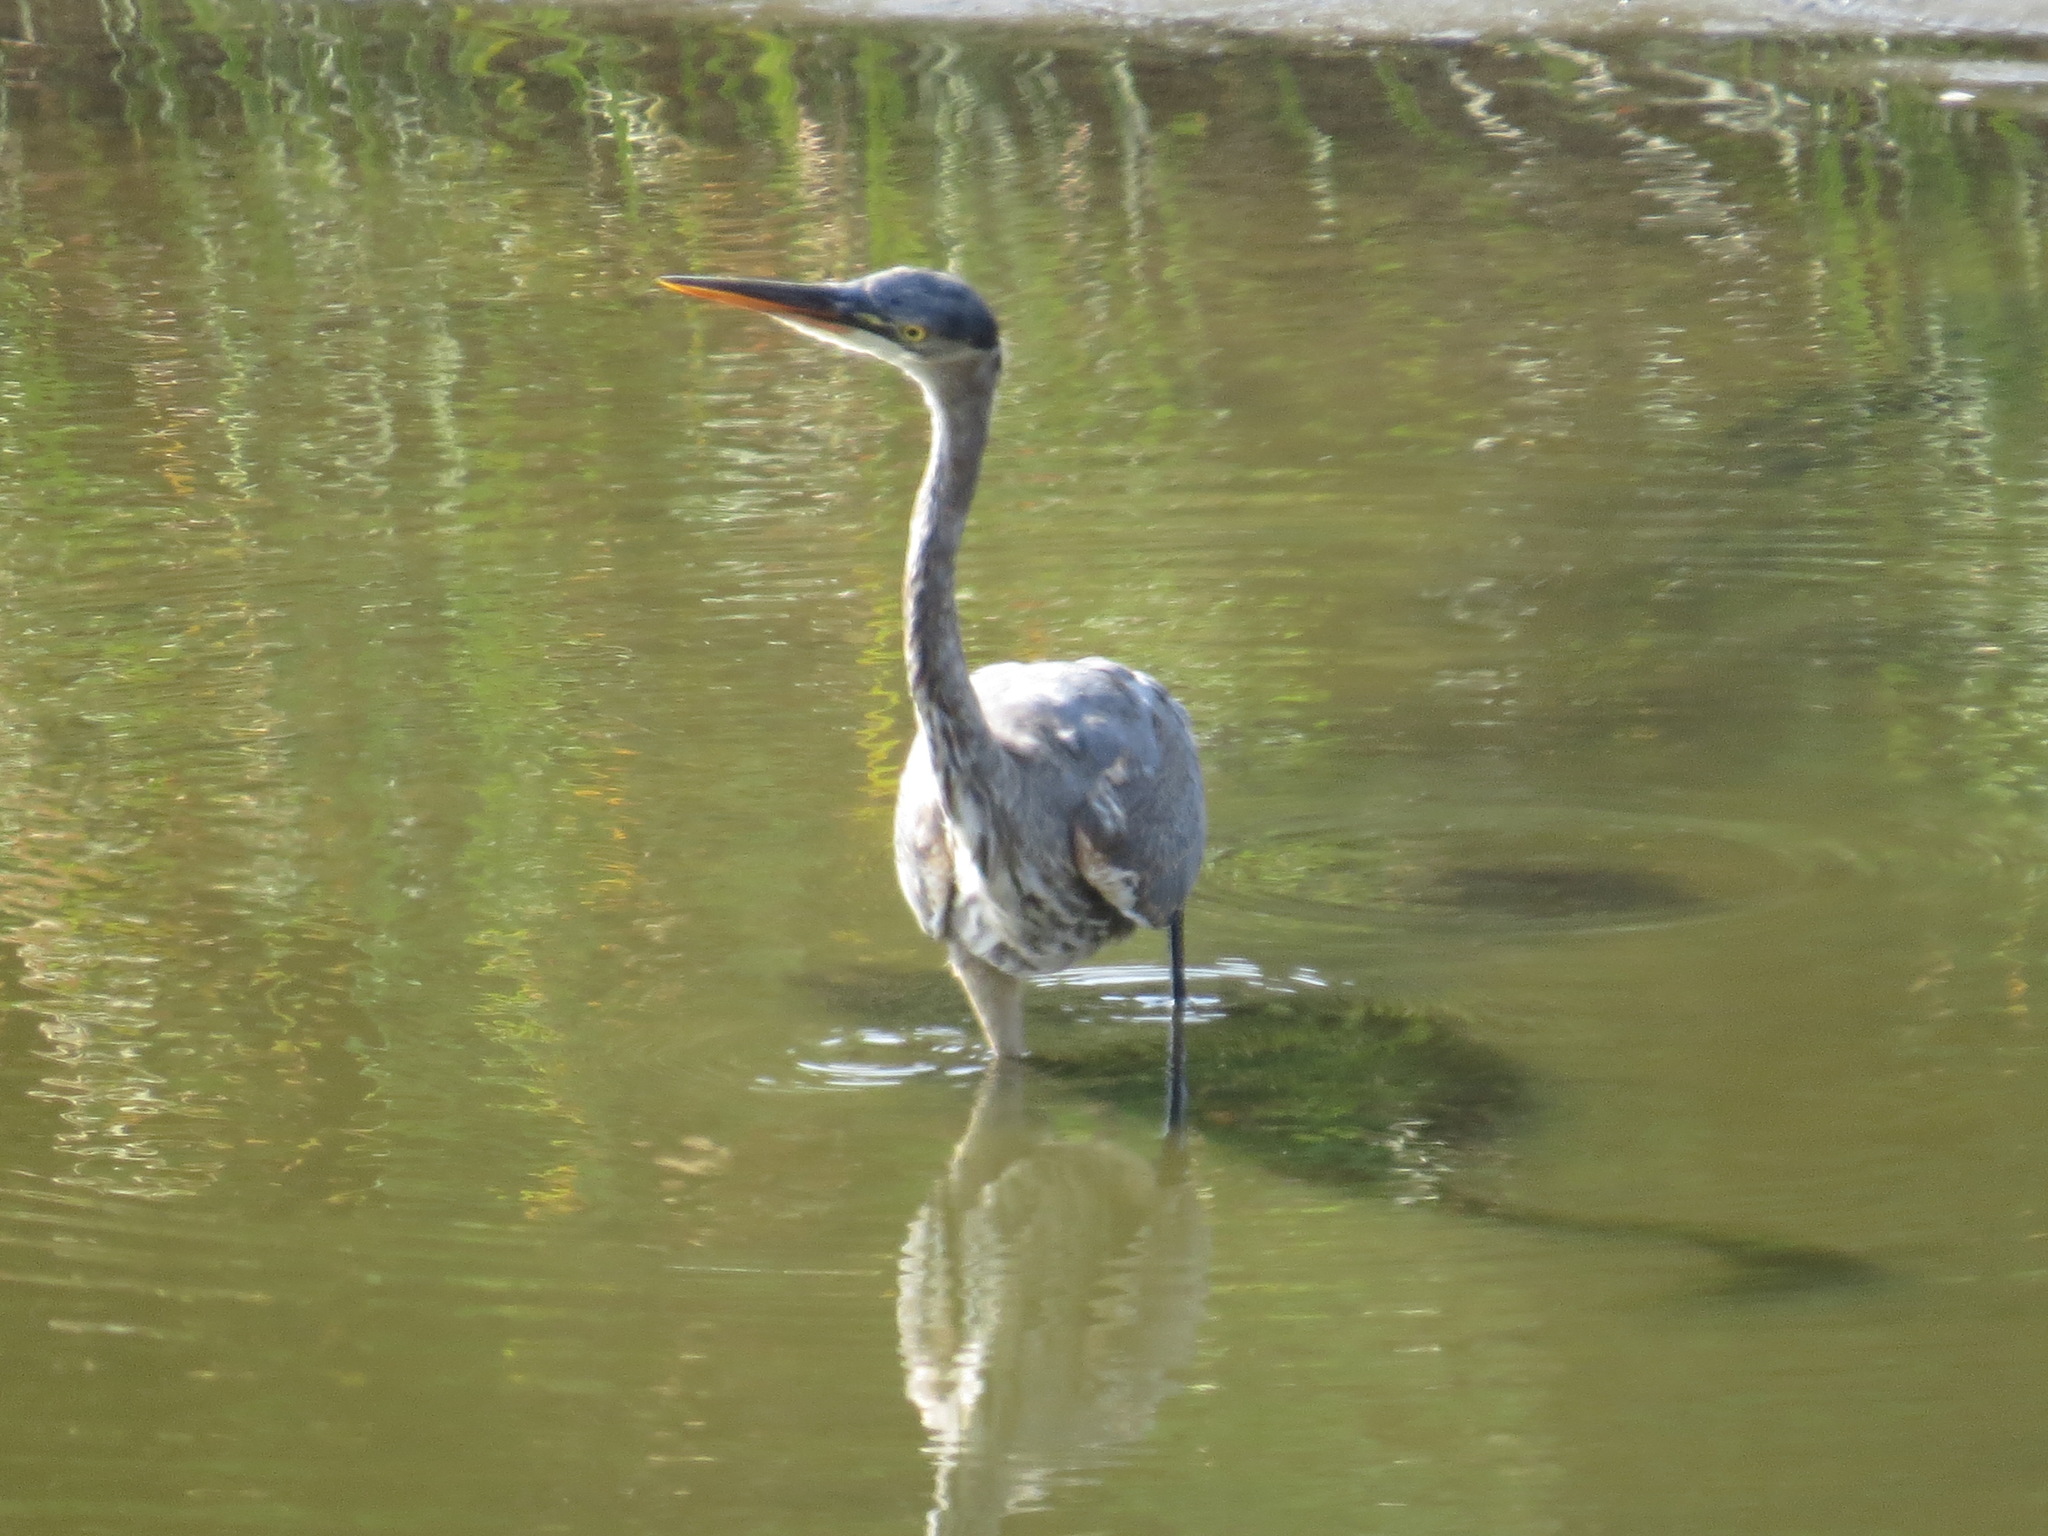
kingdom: Animalia
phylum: Chordata
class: Aves
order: Pelecaniformes
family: Ardeidae
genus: Ardea
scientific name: Ardea herodias
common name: Great blue heron
